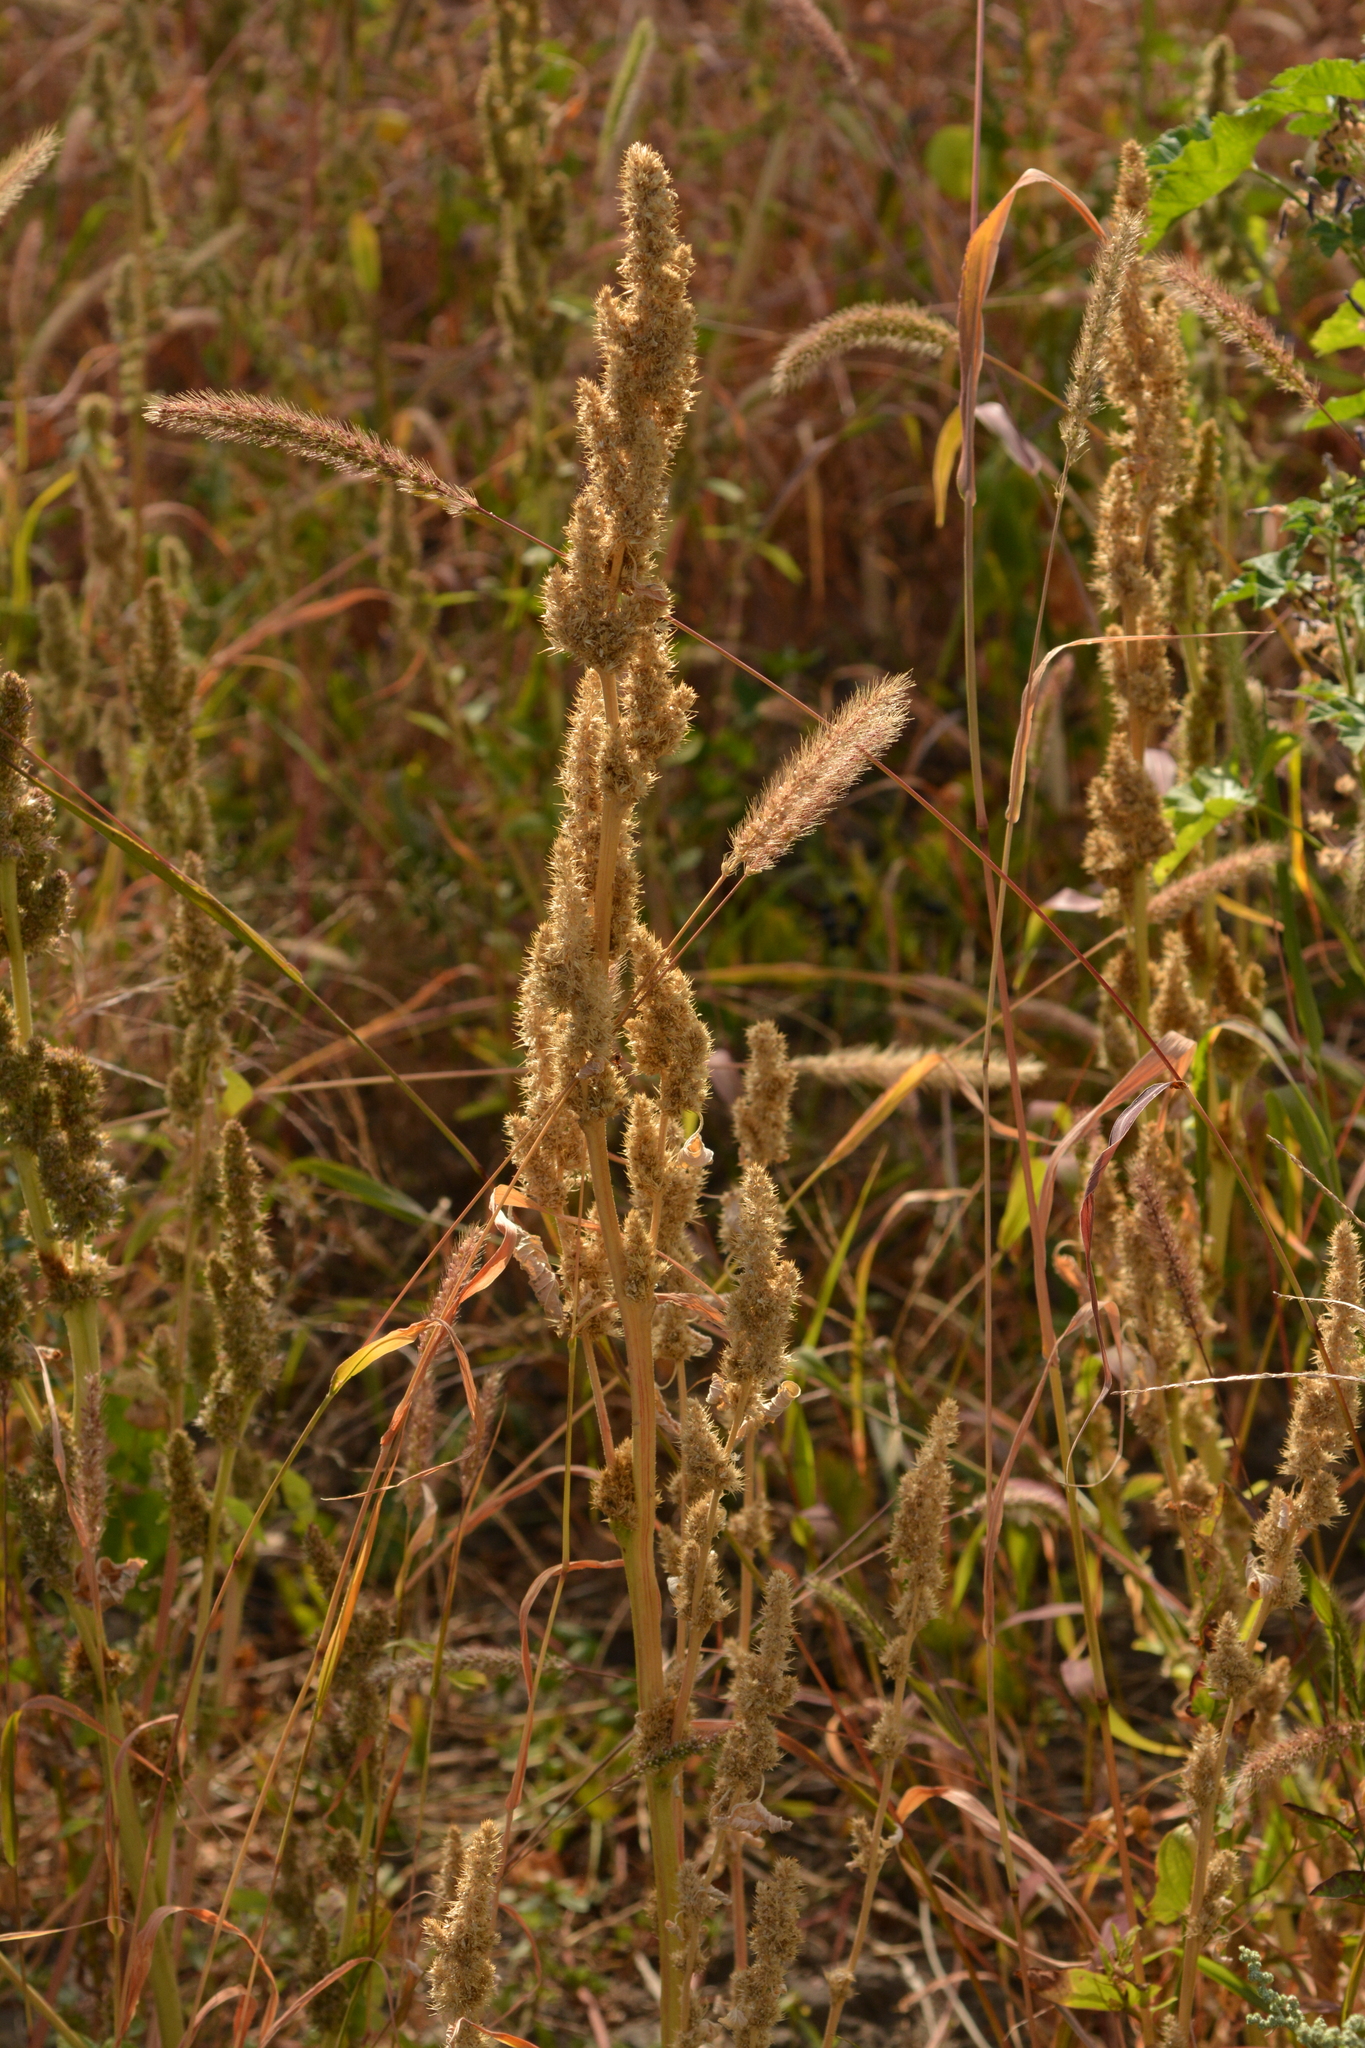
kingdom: Plantae
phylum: Tracheophyta
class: Magnoliopsida
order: Caryophyllales
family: Amaranthaceae
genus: Amaranthus
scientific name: Amaranthus retroflexus
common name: Redroot amaranth
